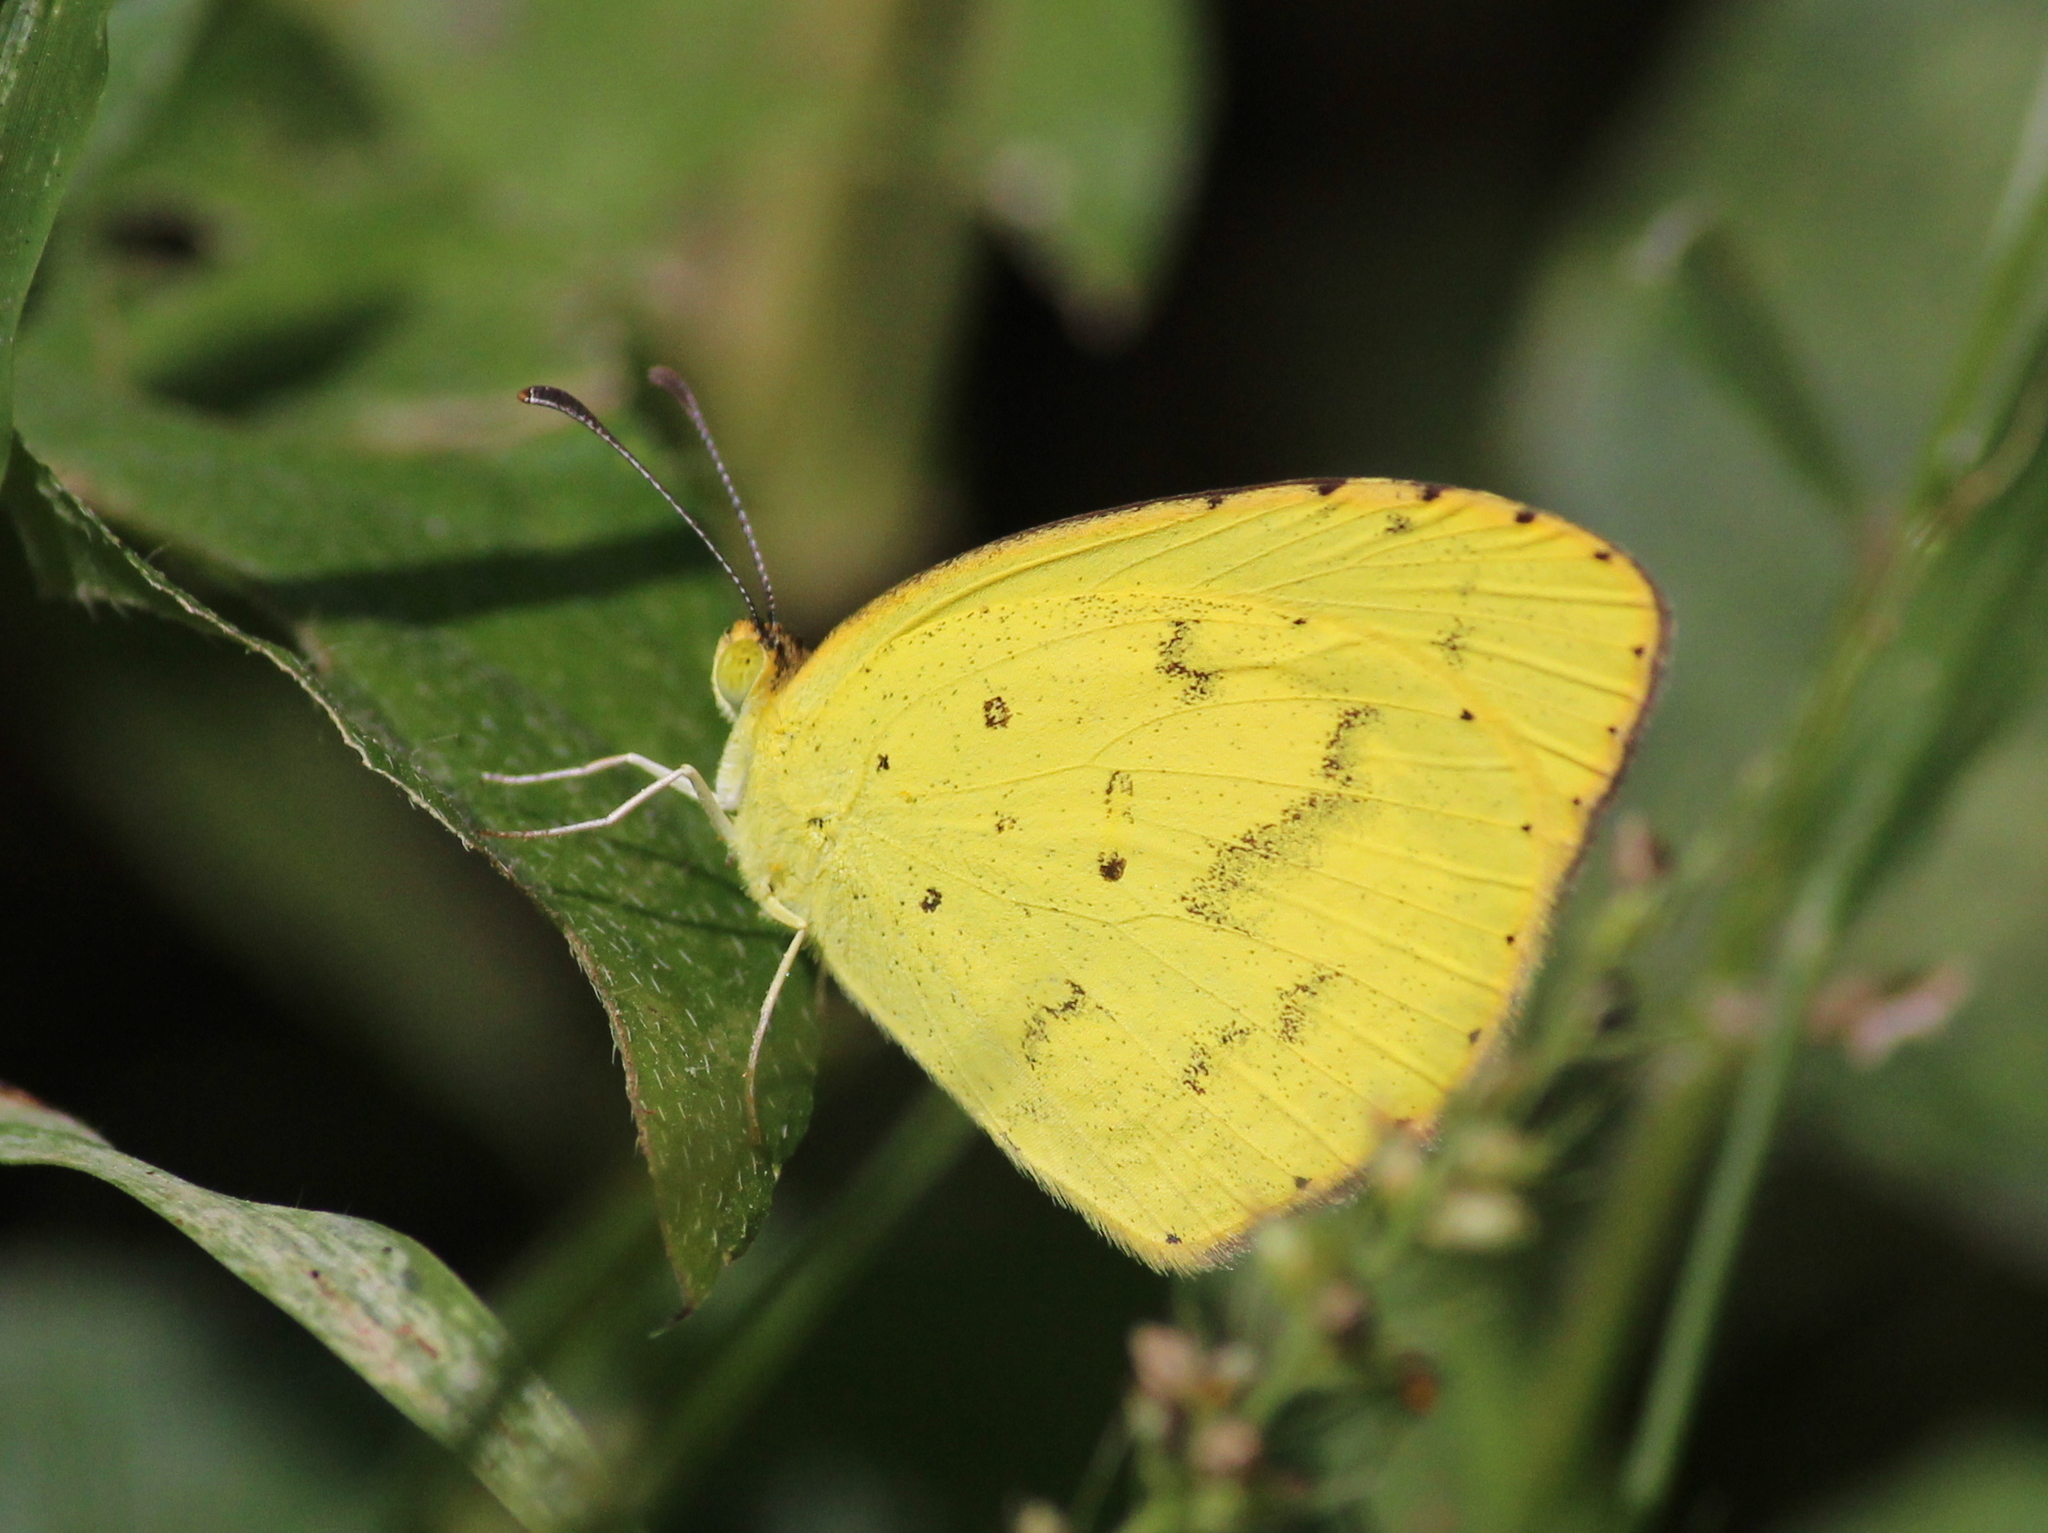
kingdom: Animalia
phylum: Arthropoda
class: Insecta
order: Lepidoptera
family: Pieridae
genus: Eurema
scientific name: Eurema brigitta
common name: Small grass yellow
